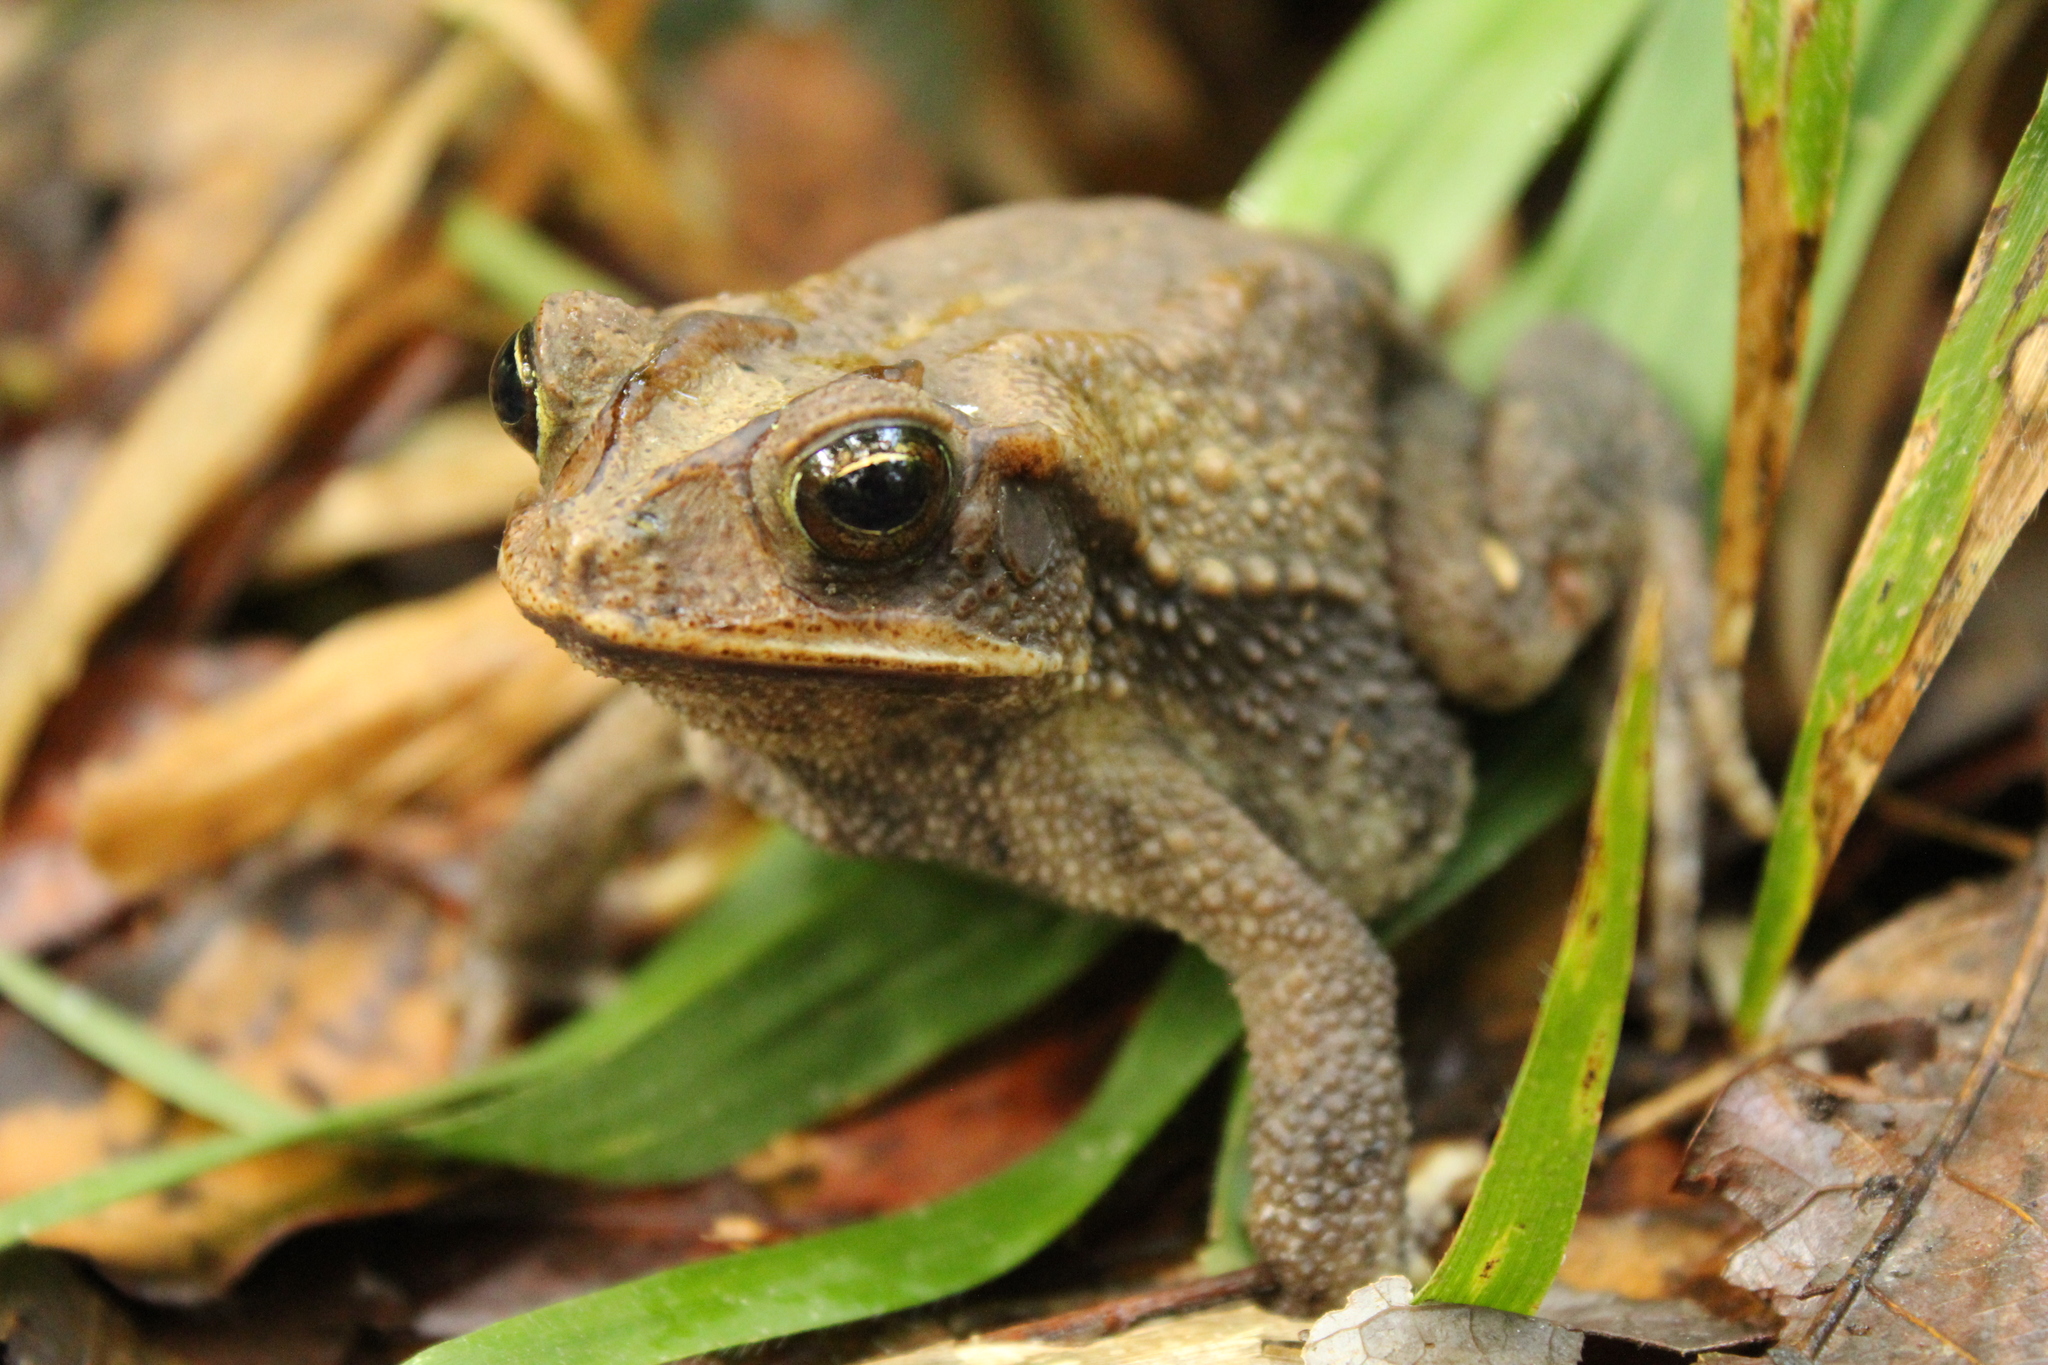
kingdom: Animalia
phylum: Chordata
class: Amphibia
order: Anura
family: Bufonidae
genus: Incilius
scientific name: Incilius valliceps
